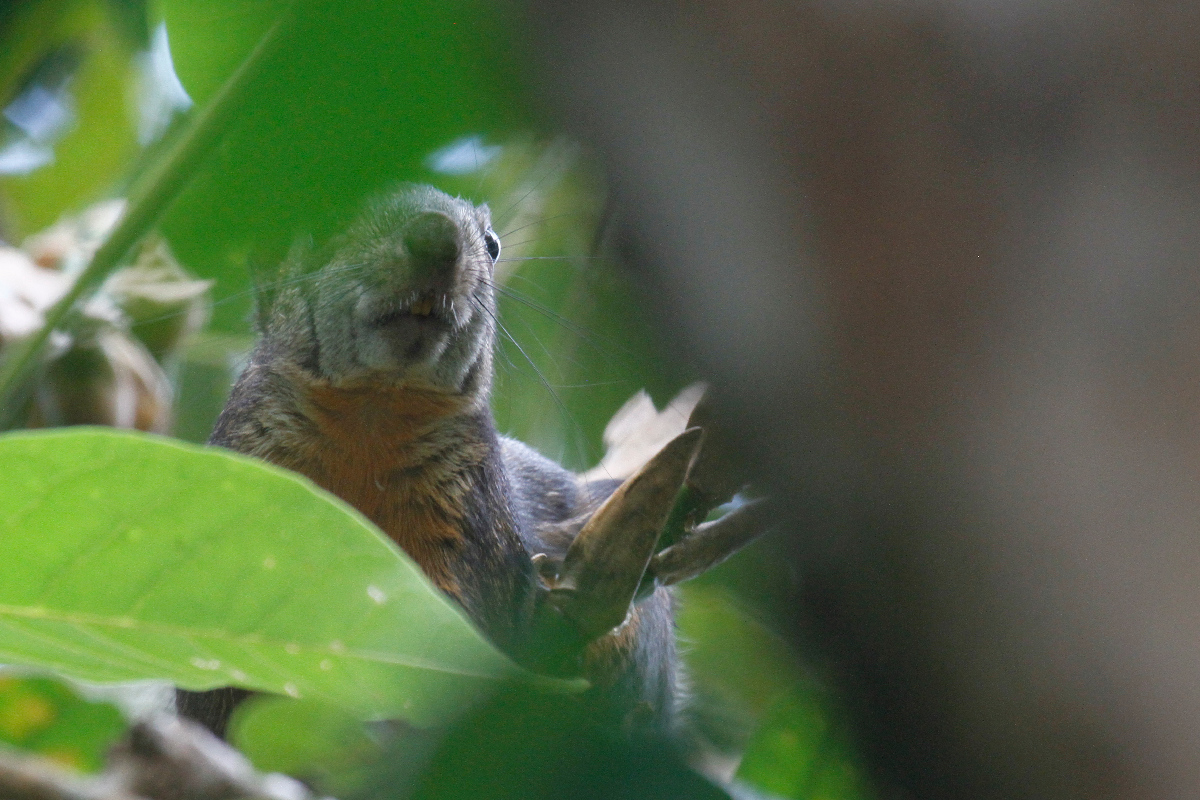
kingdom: Animalia
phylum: Chordata
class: Mammalia
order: Rodentia
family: Sciuridae
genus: Sciurus
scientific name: Sciurus variegatoides
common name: Variegated squirrel
